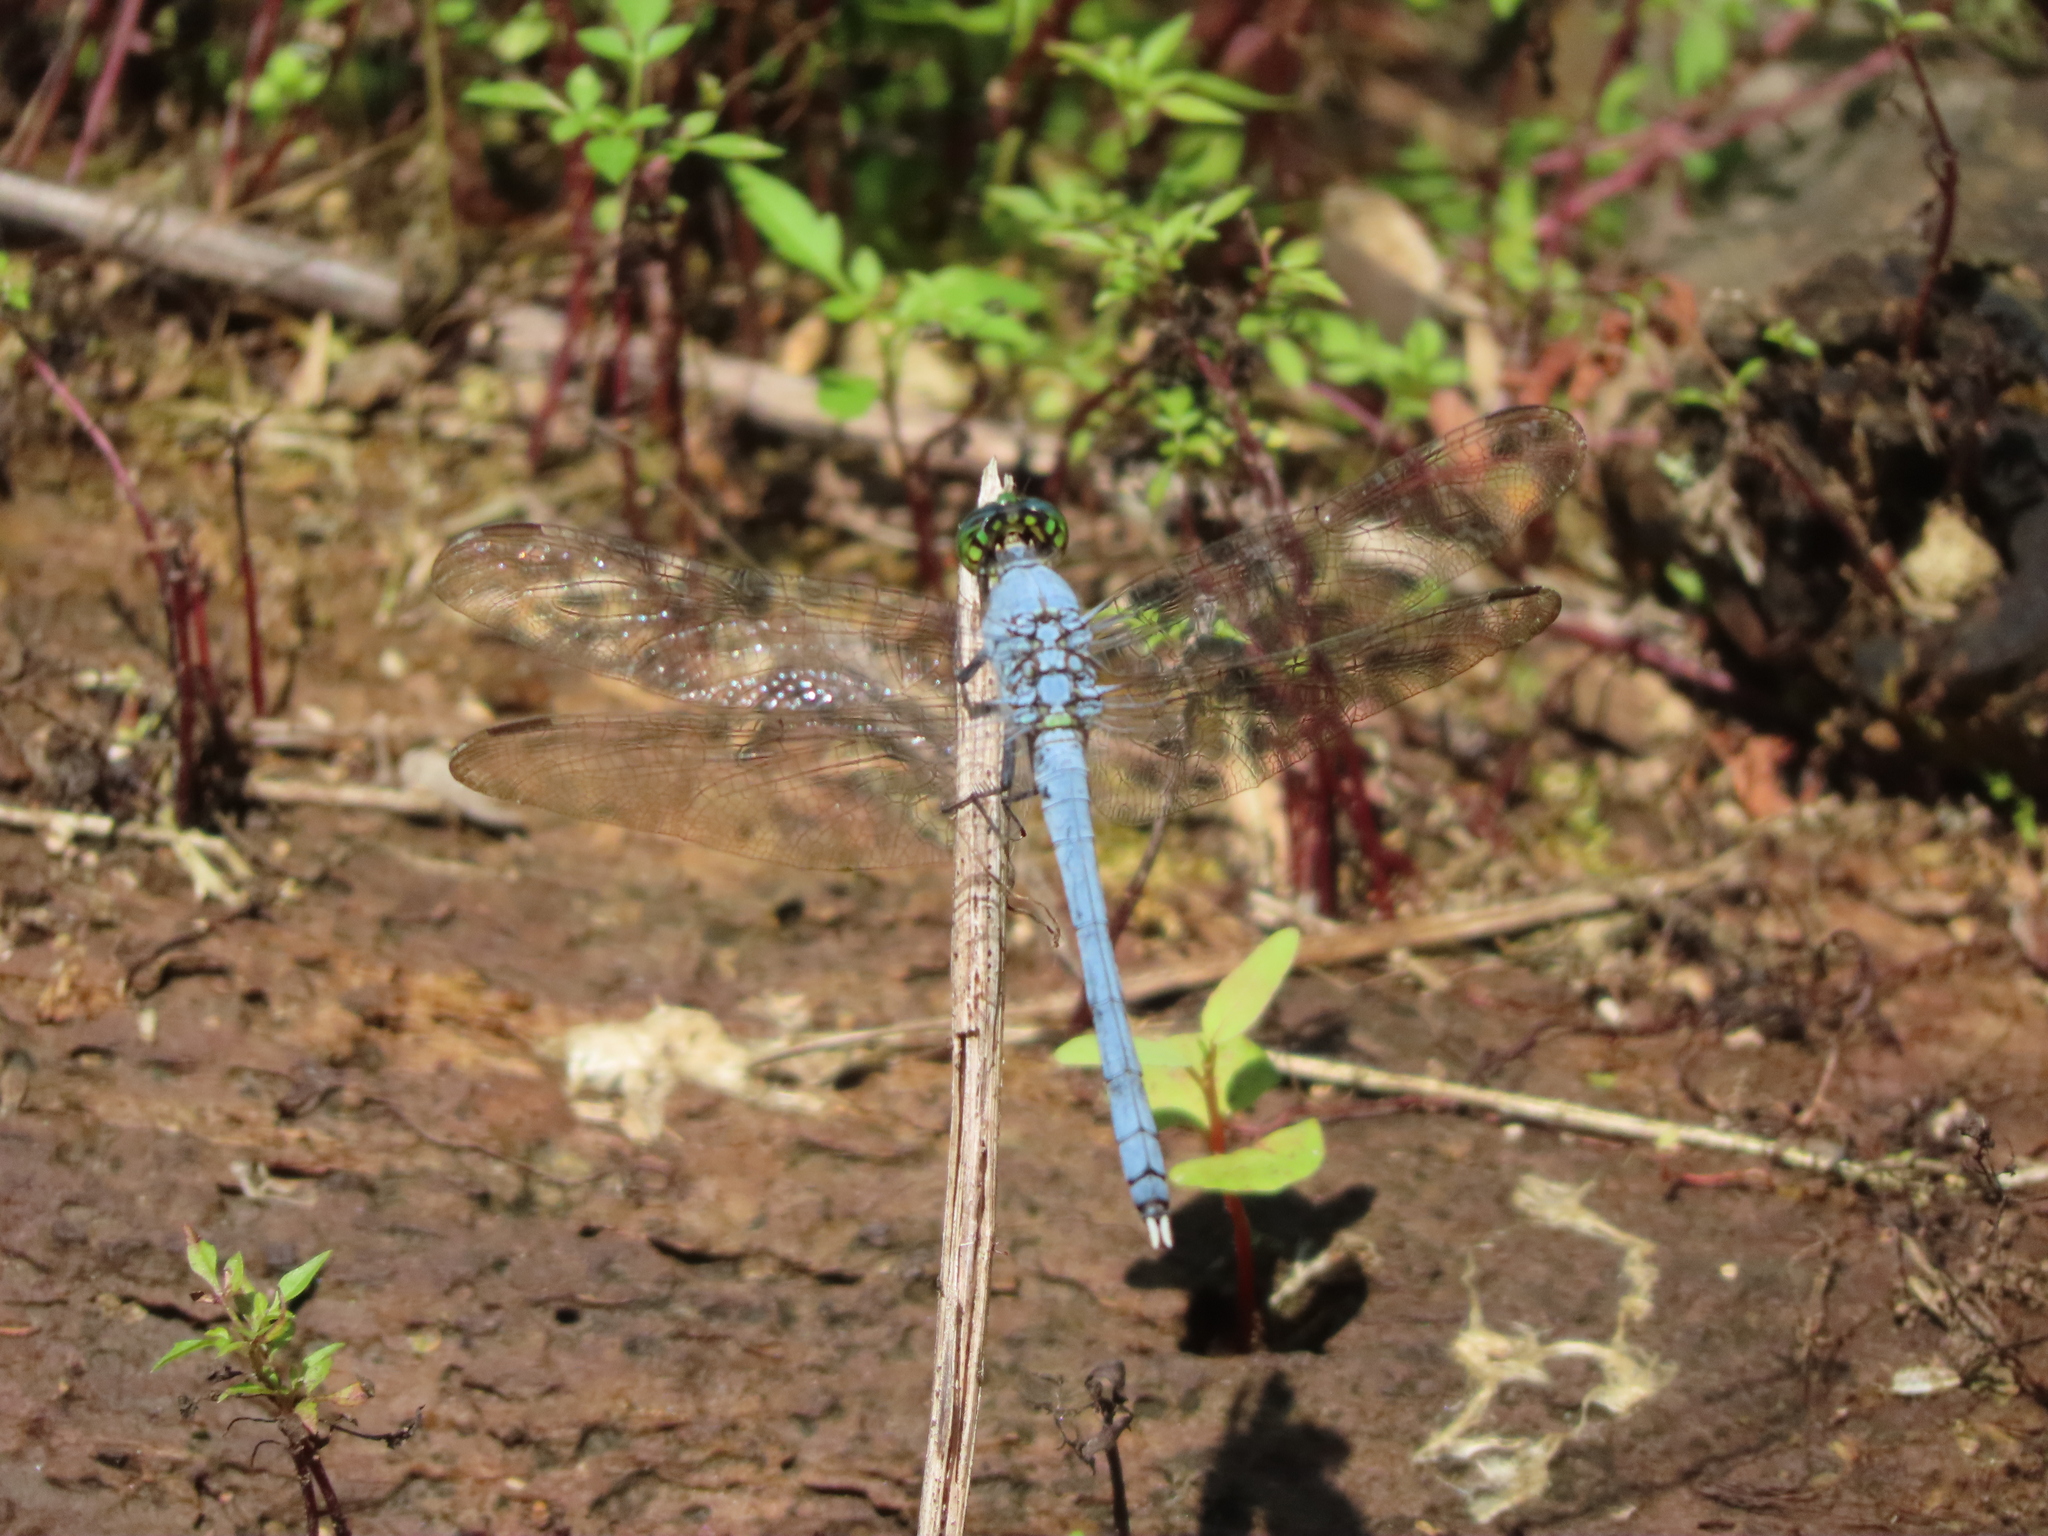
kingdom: Animalia
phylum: Arthropoda
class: Insecta
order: Odonata
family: Libellulidae
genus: Erythemis
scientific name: Erythemis simplicicollis
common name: Eastern pondhawk
